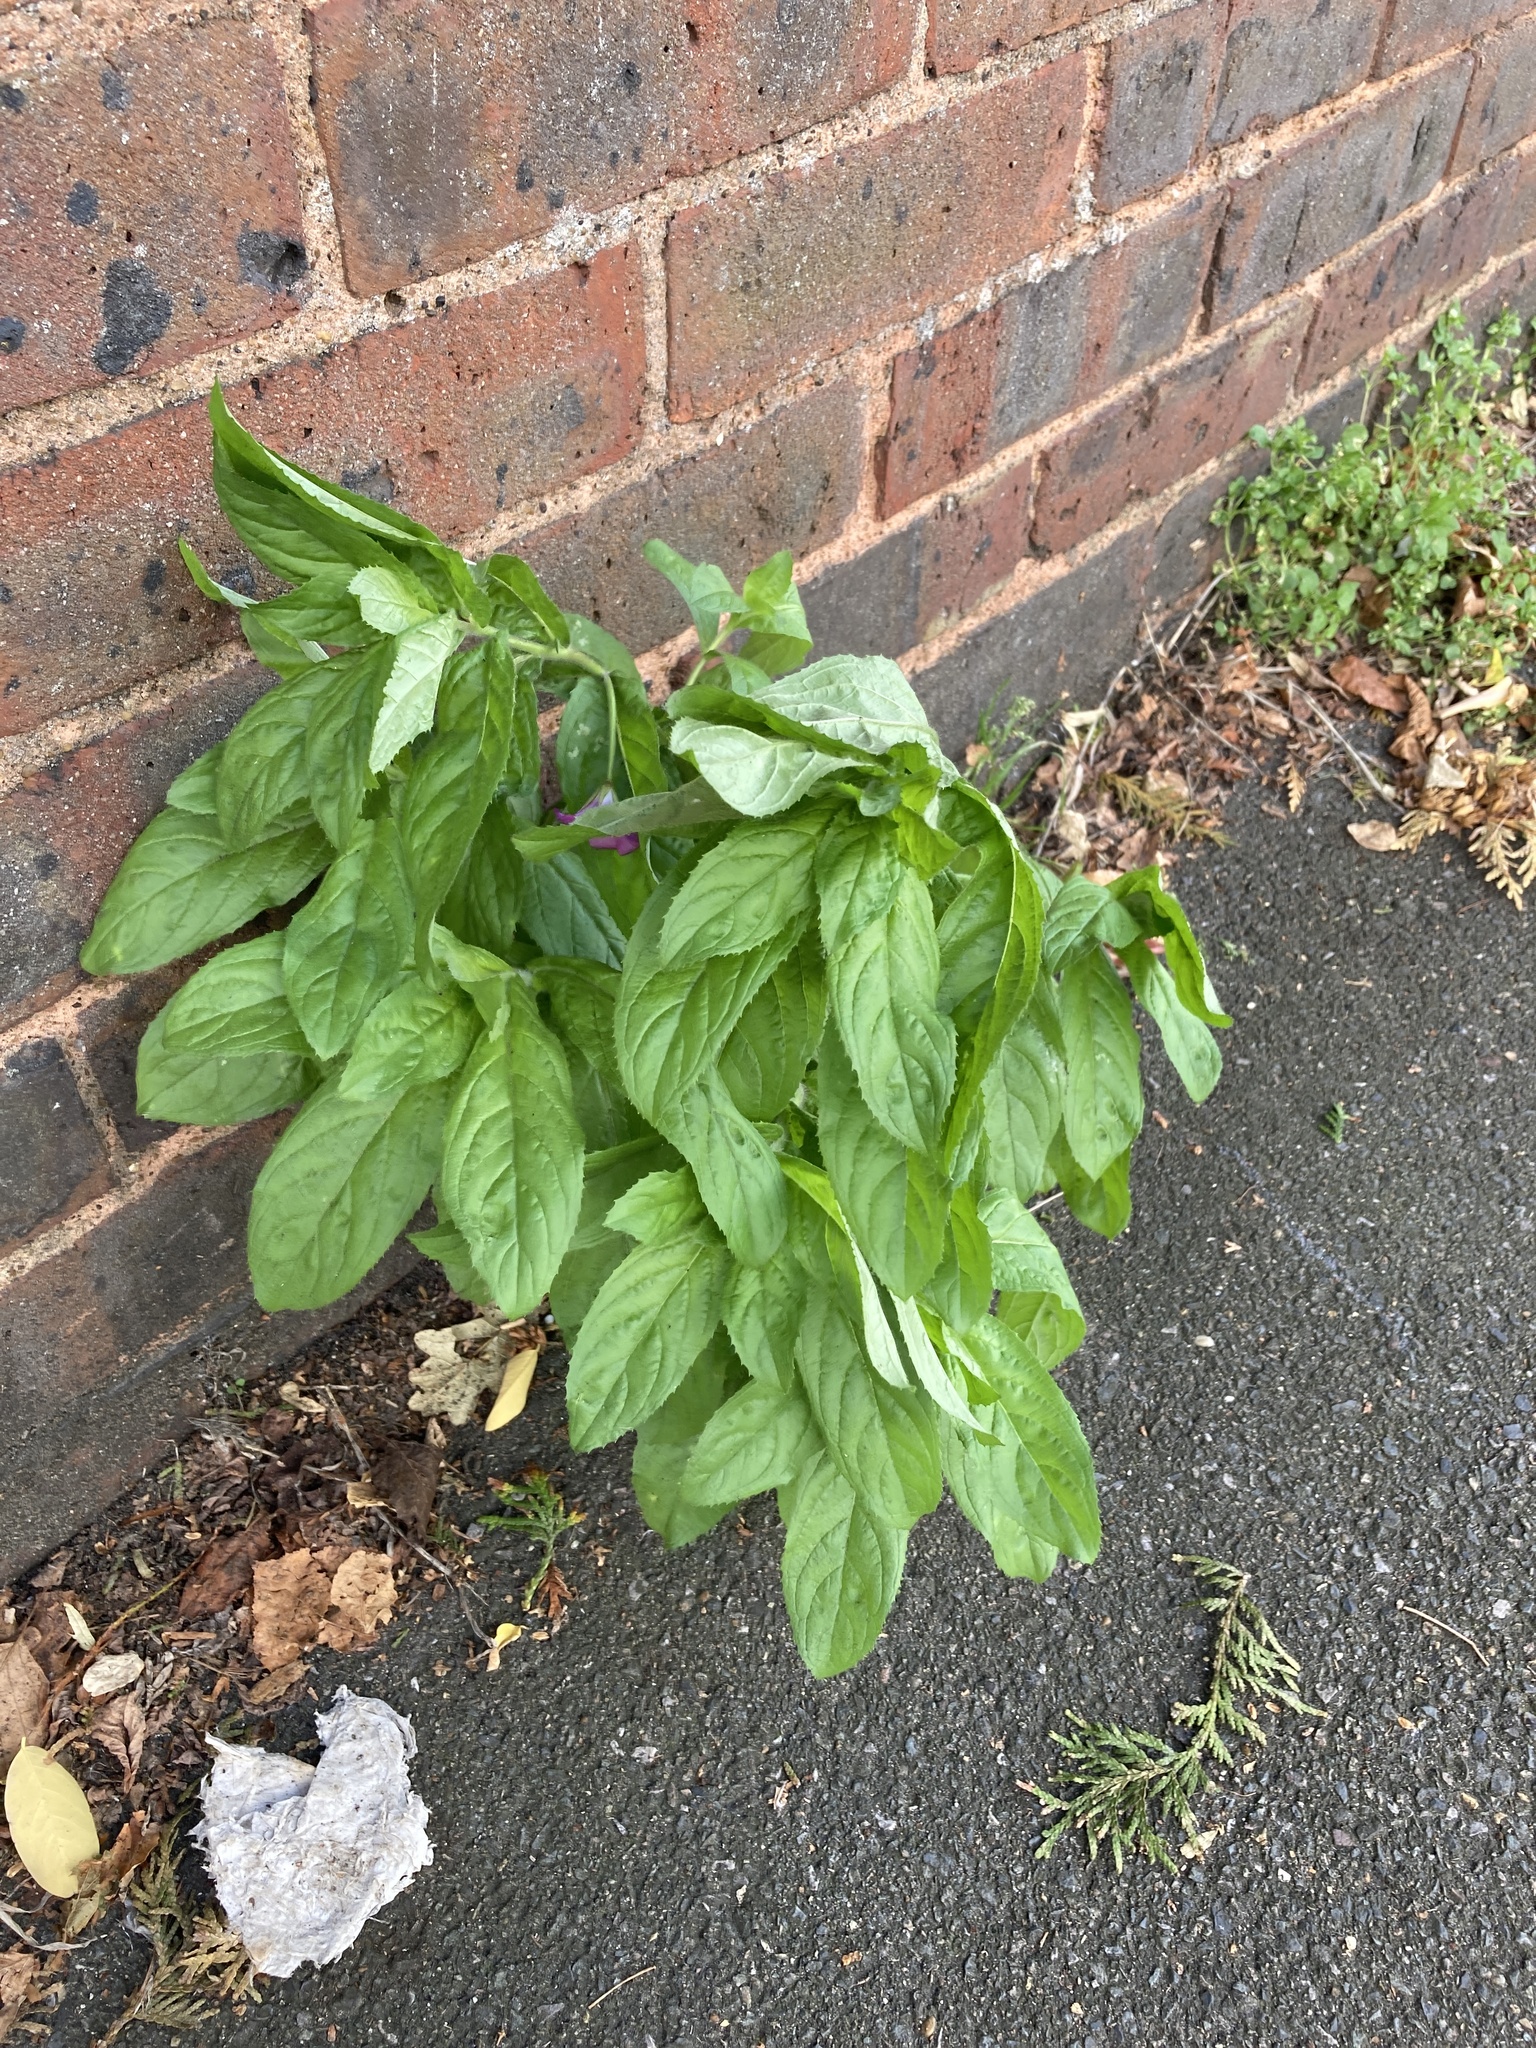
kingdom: Plantae
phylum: Tracheophyta
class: Magnoliopsida
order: Myrtales
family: Onagraceae
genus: Epilobium
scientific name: Epilobium hirsutum
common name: Great willowherb
